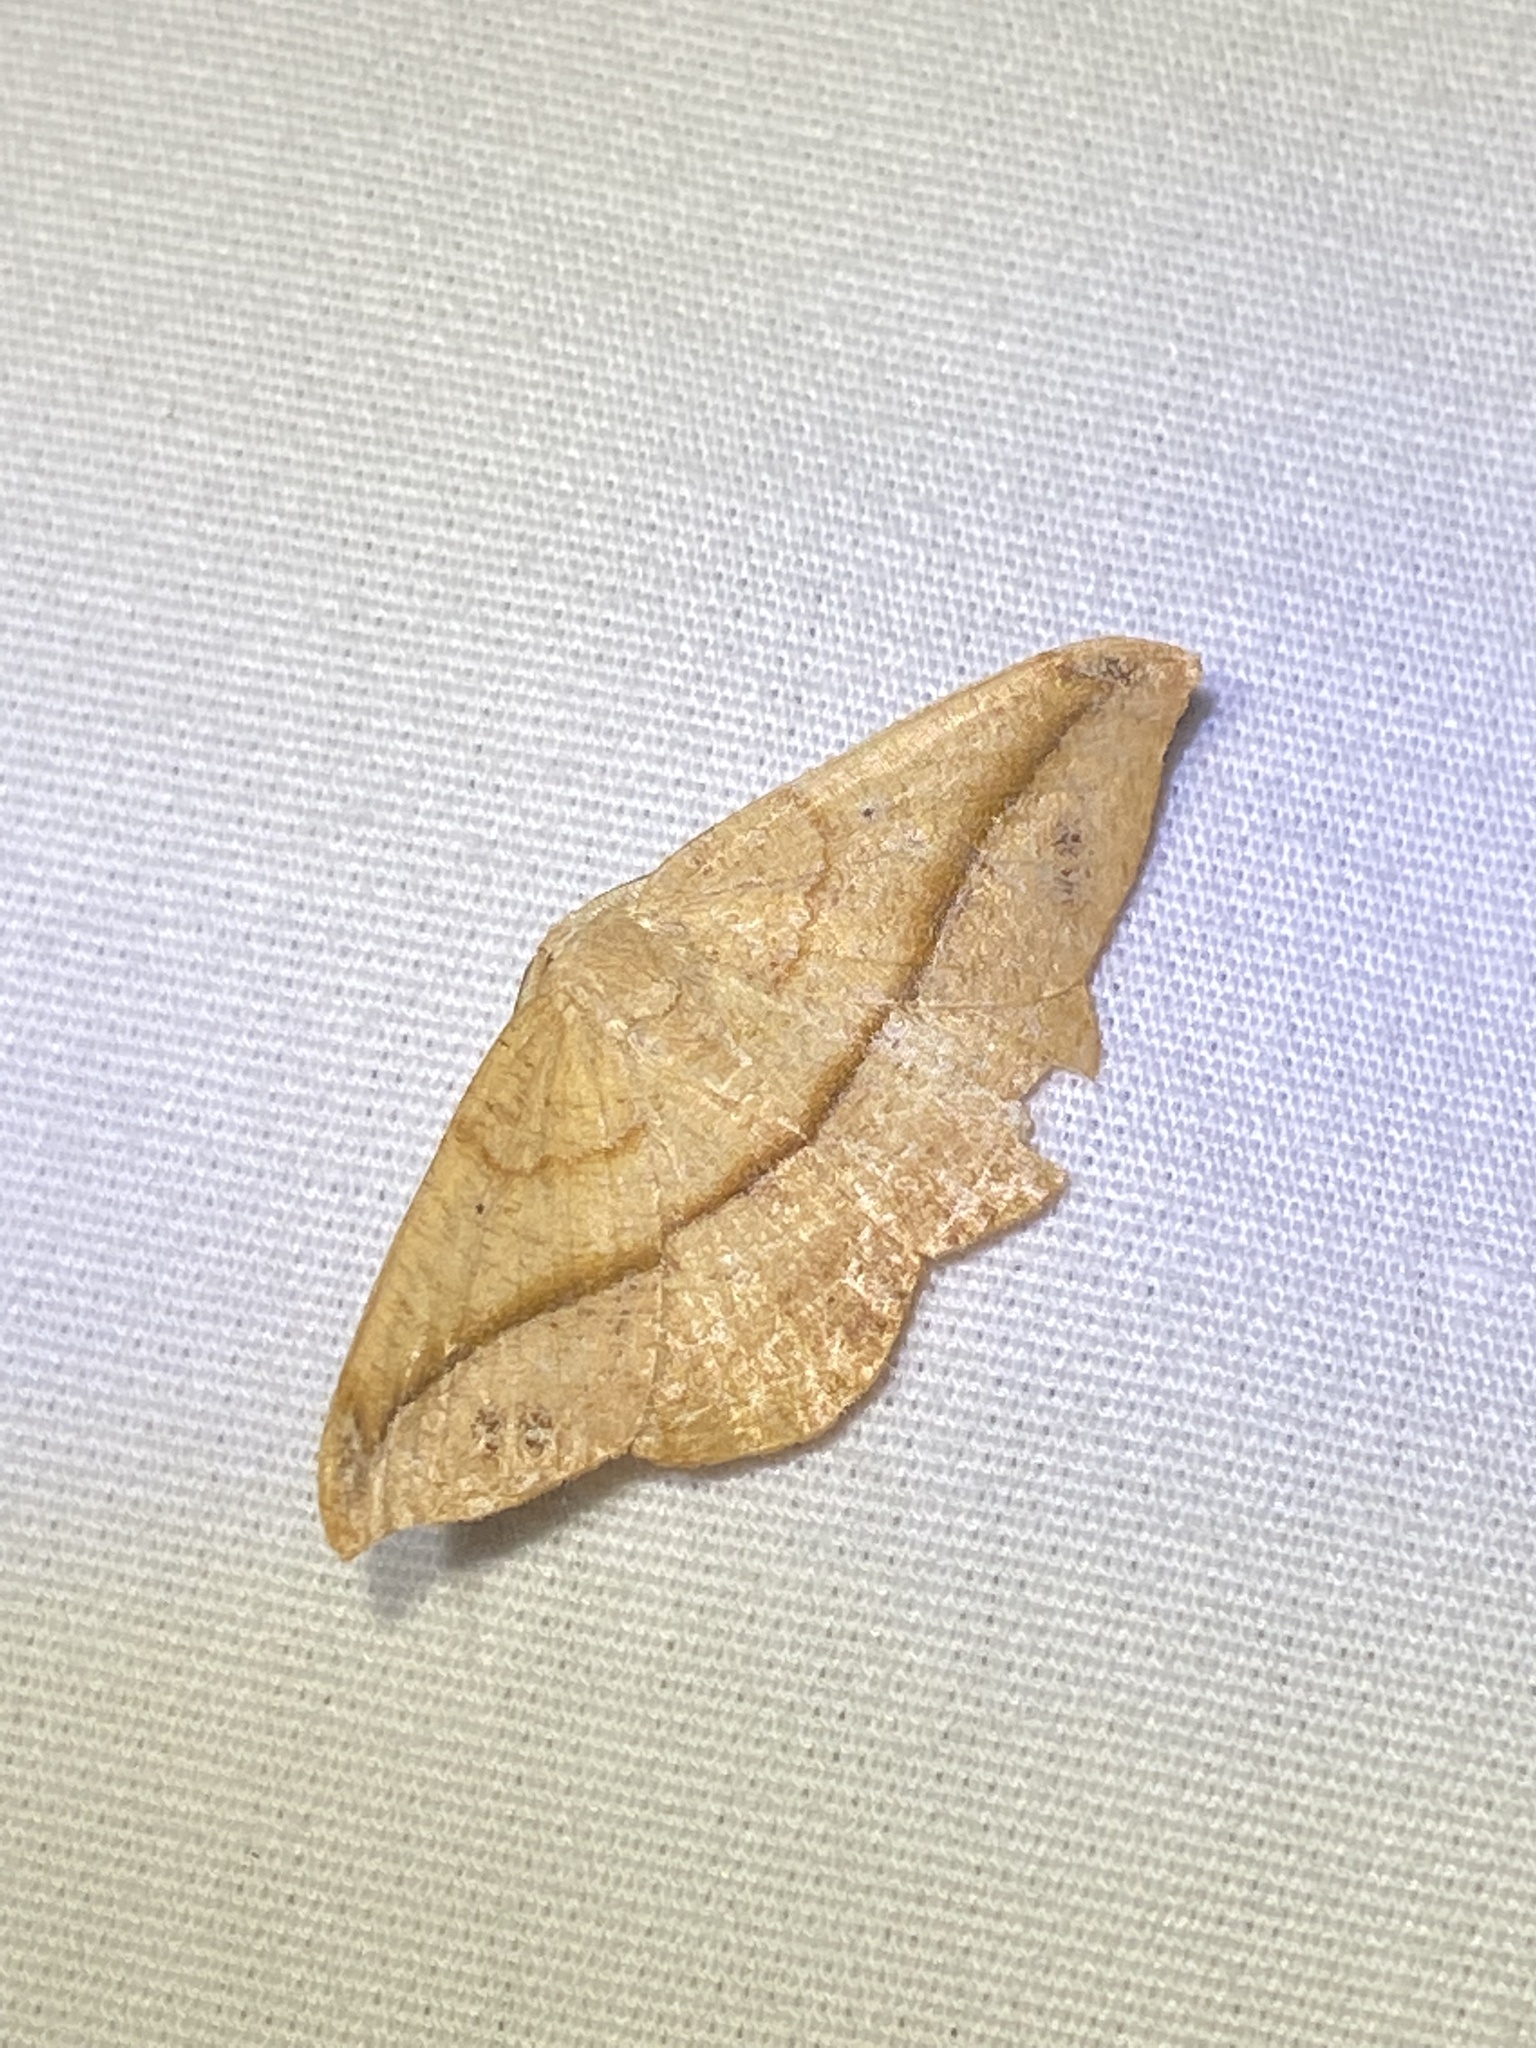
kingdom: Animalia
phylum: Arthropoda
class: Insecta
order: Lepidoptera
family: Geometridae
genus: Patalene
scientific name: Patalene olyzonaria
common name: Juniper geometer moth
